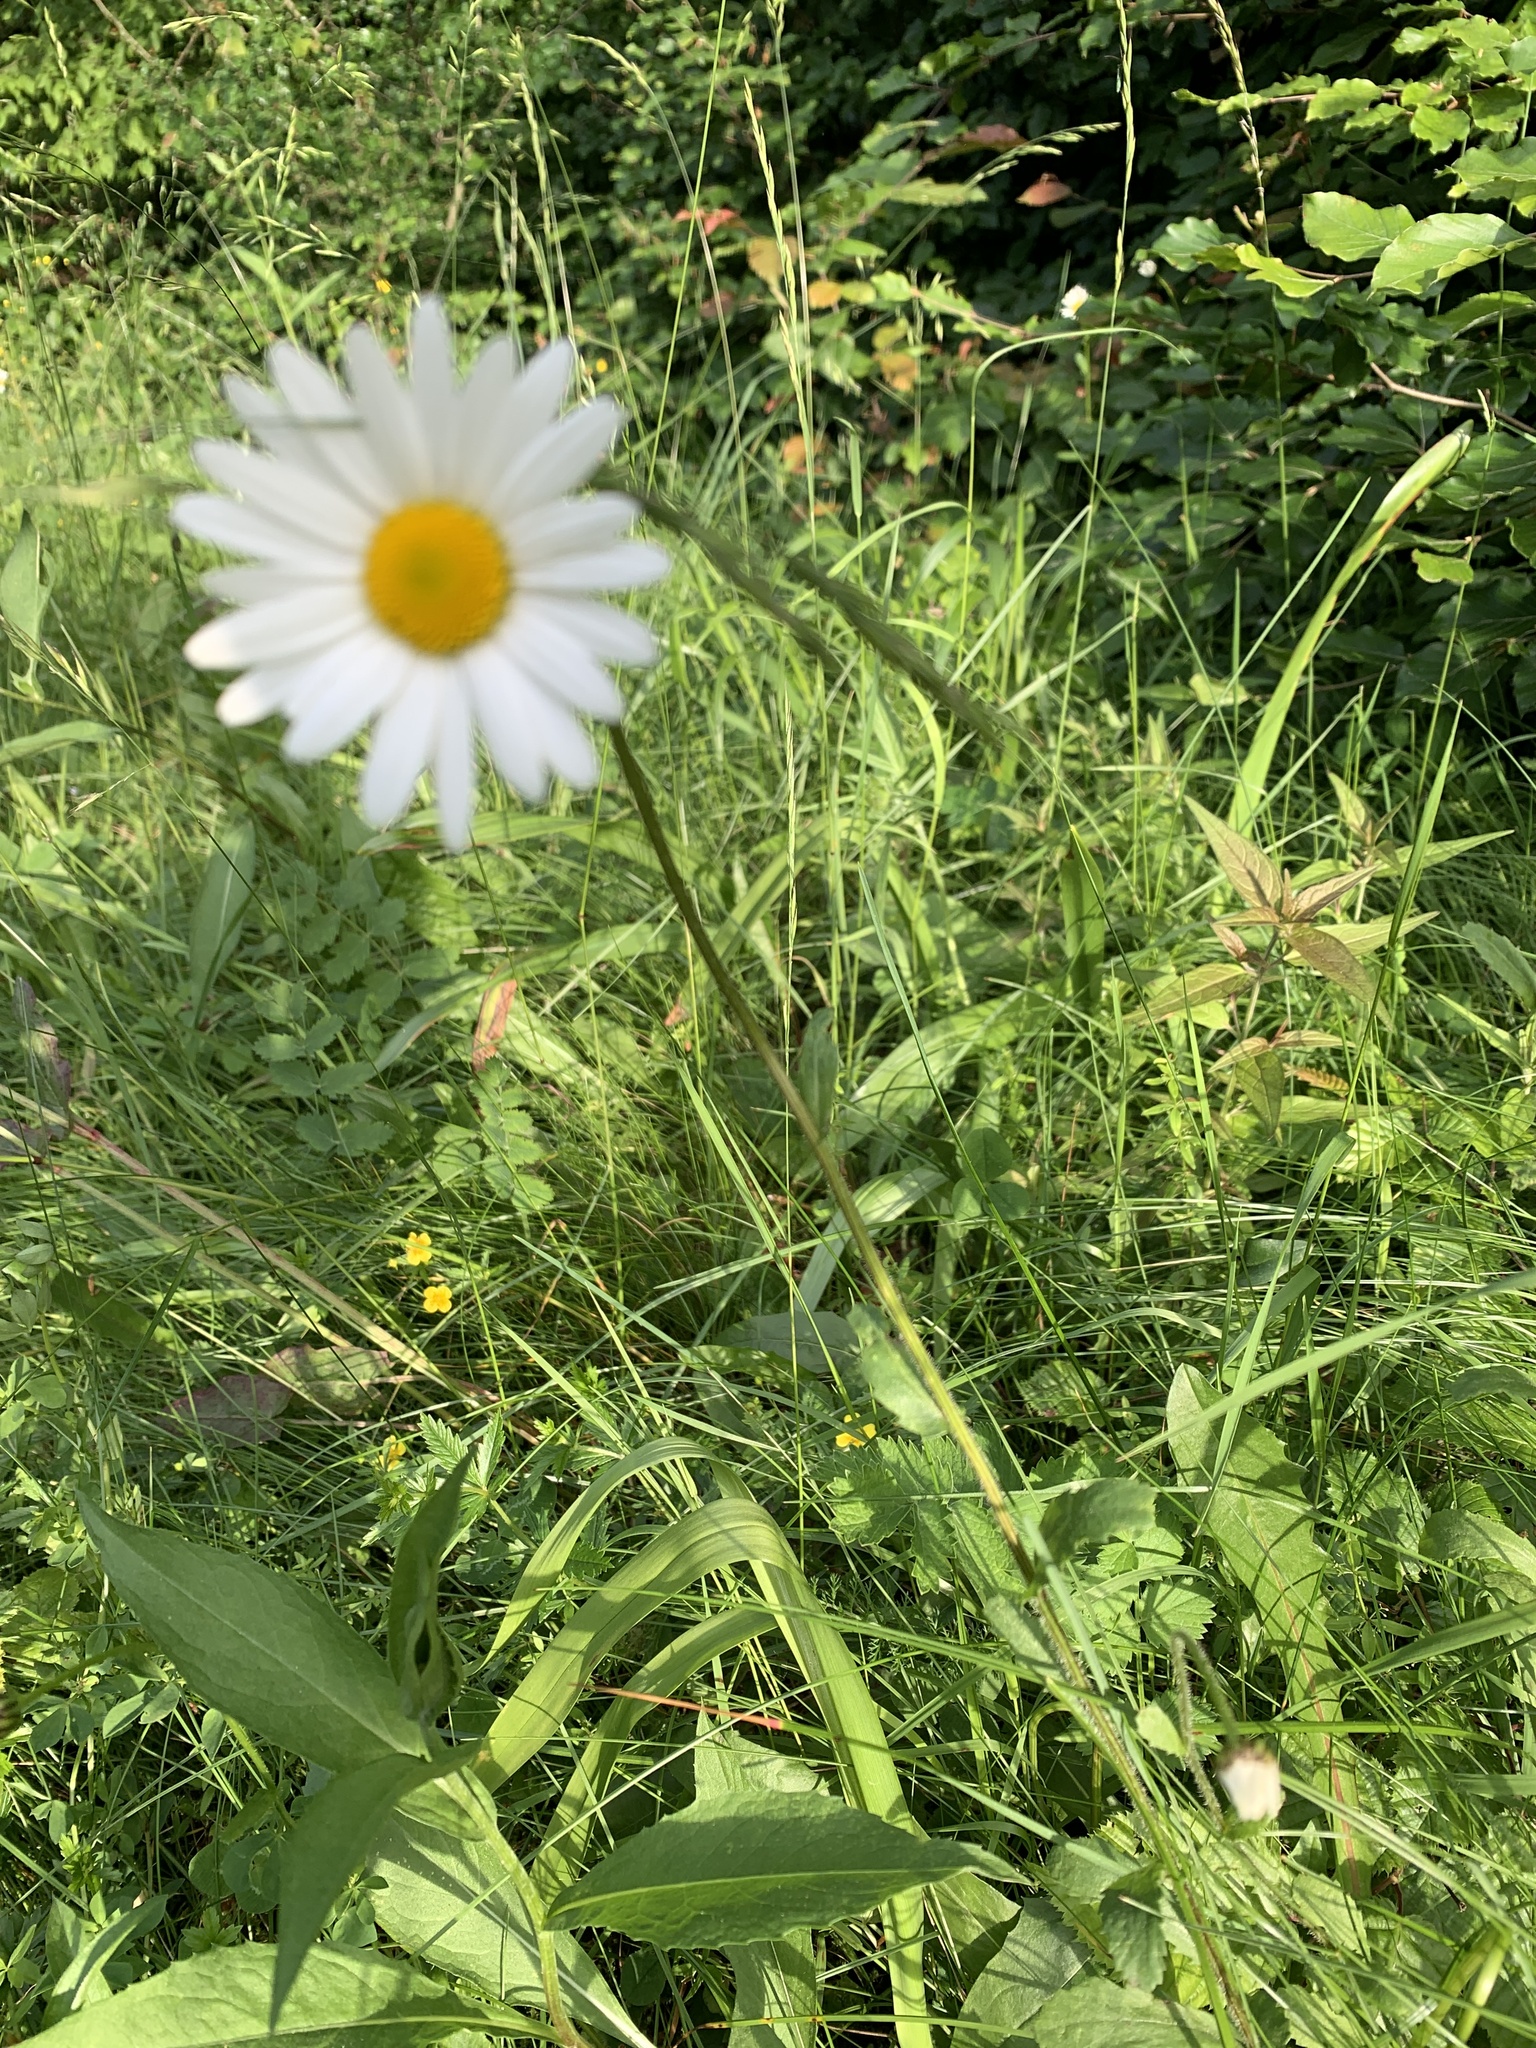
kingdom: Plantae
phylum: Tracheophyta
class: Magnoliopsida
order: Asterales
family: Asteraceae
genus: Leucanthemum
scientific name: Leucanthemum vulgare
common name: Oxeye daisy
